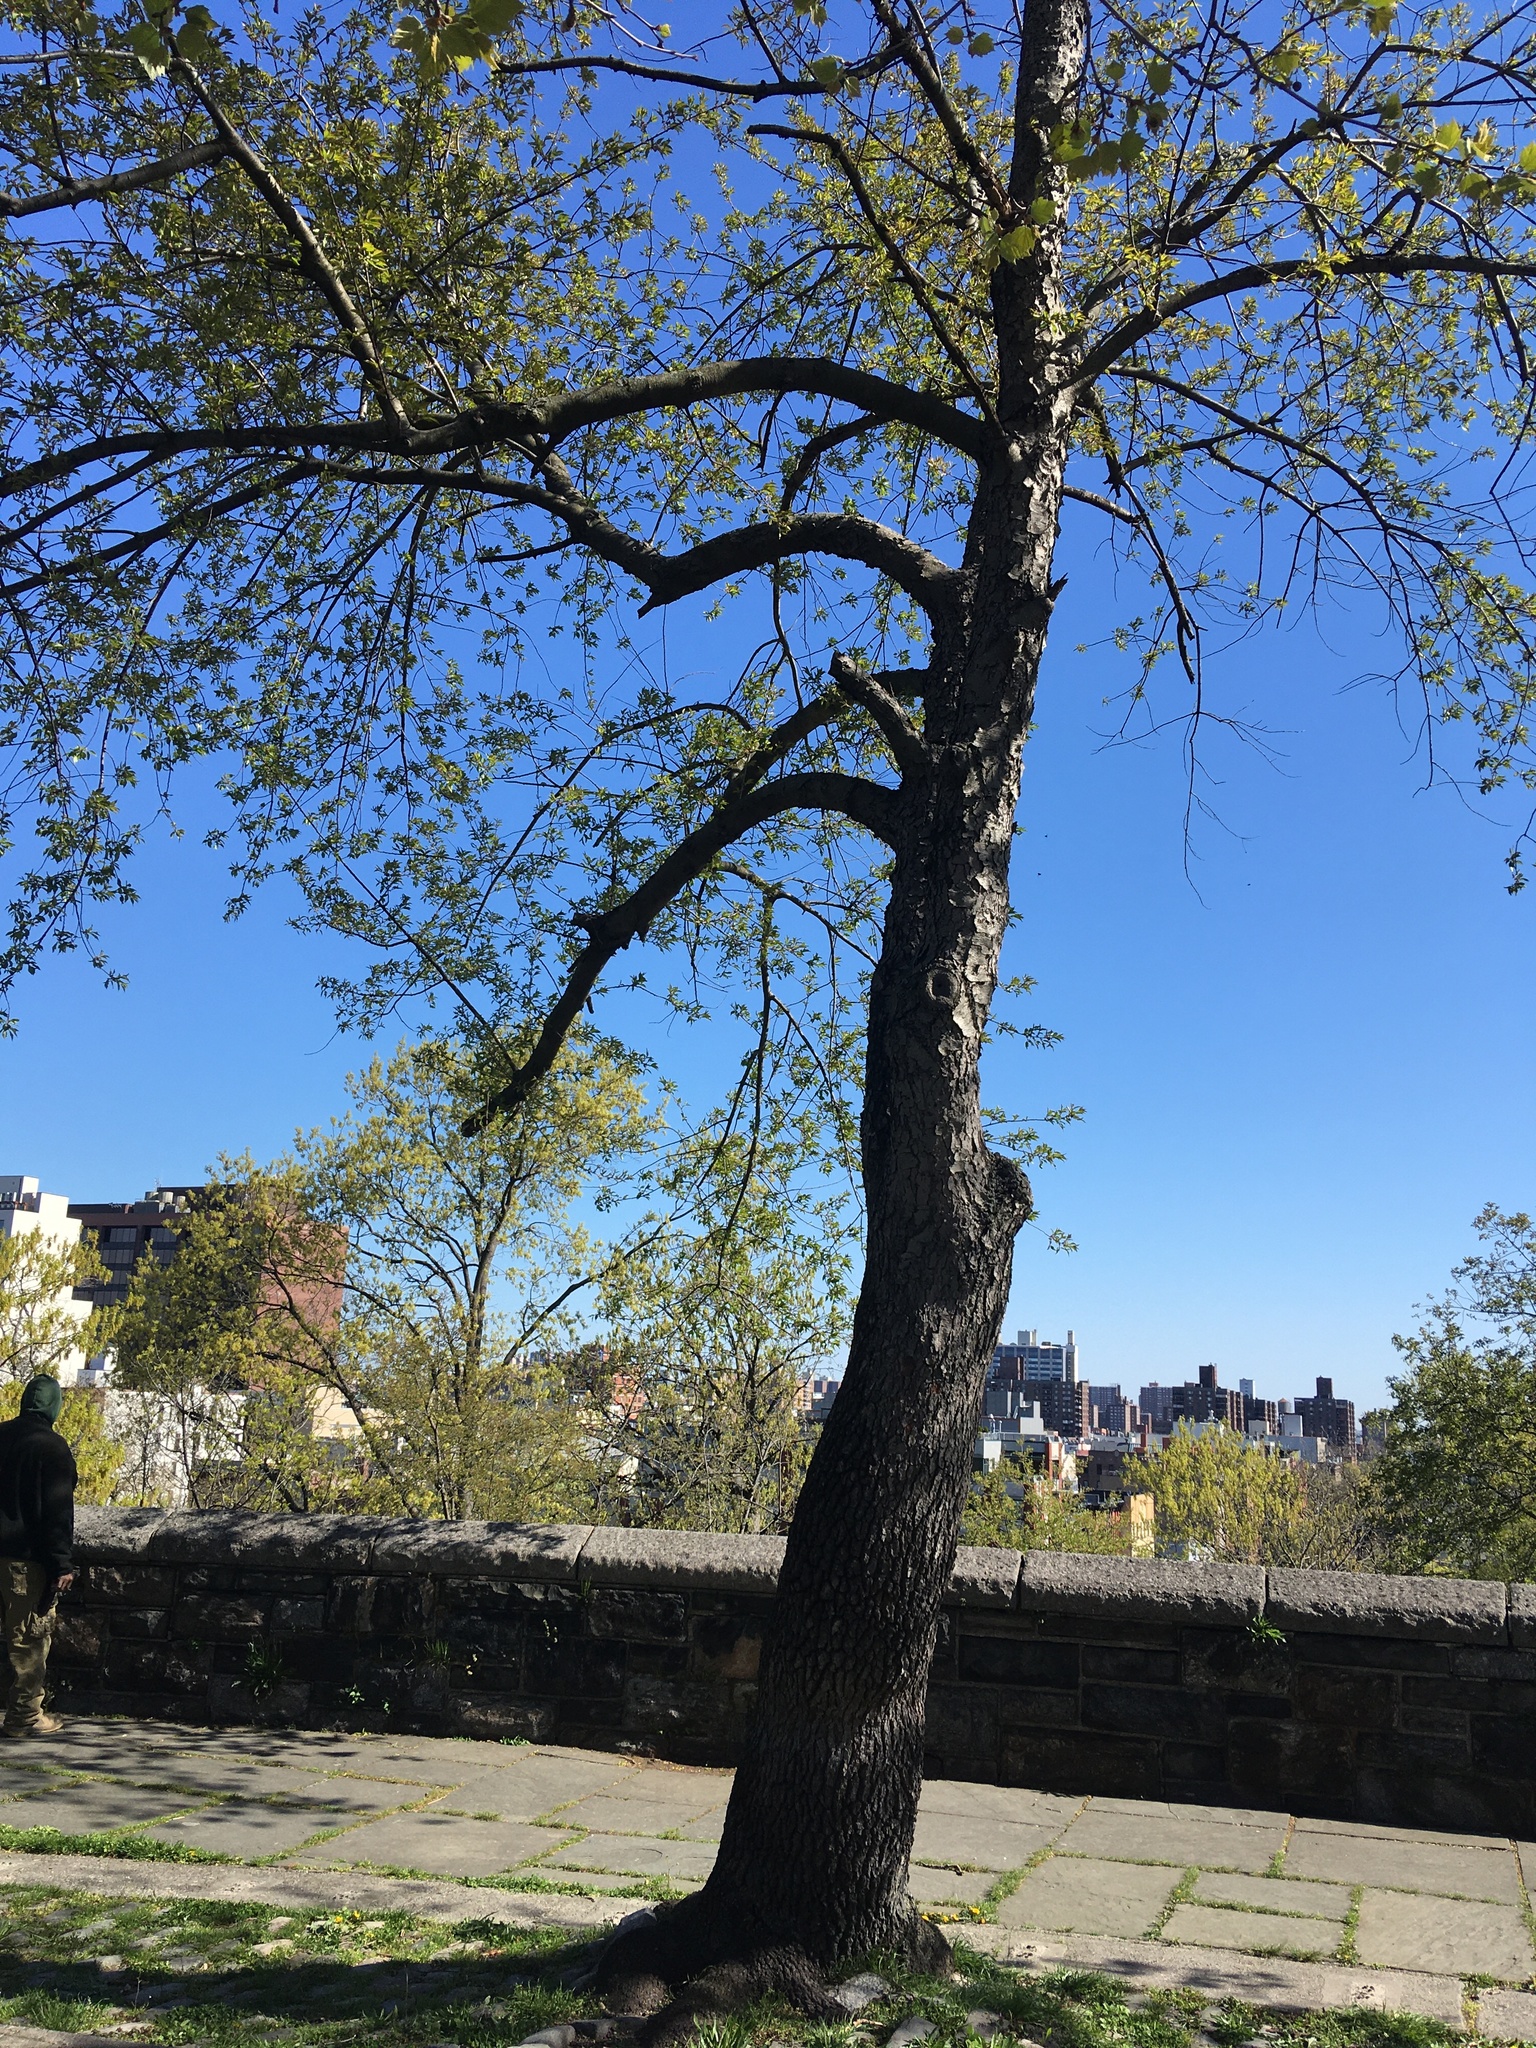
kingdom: Plantae
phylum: Tracheophyta
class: Magnoliopsida
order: Rosales
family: Rosaceae
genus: Prunus
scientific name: Prunus serotina
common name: Black cherry
